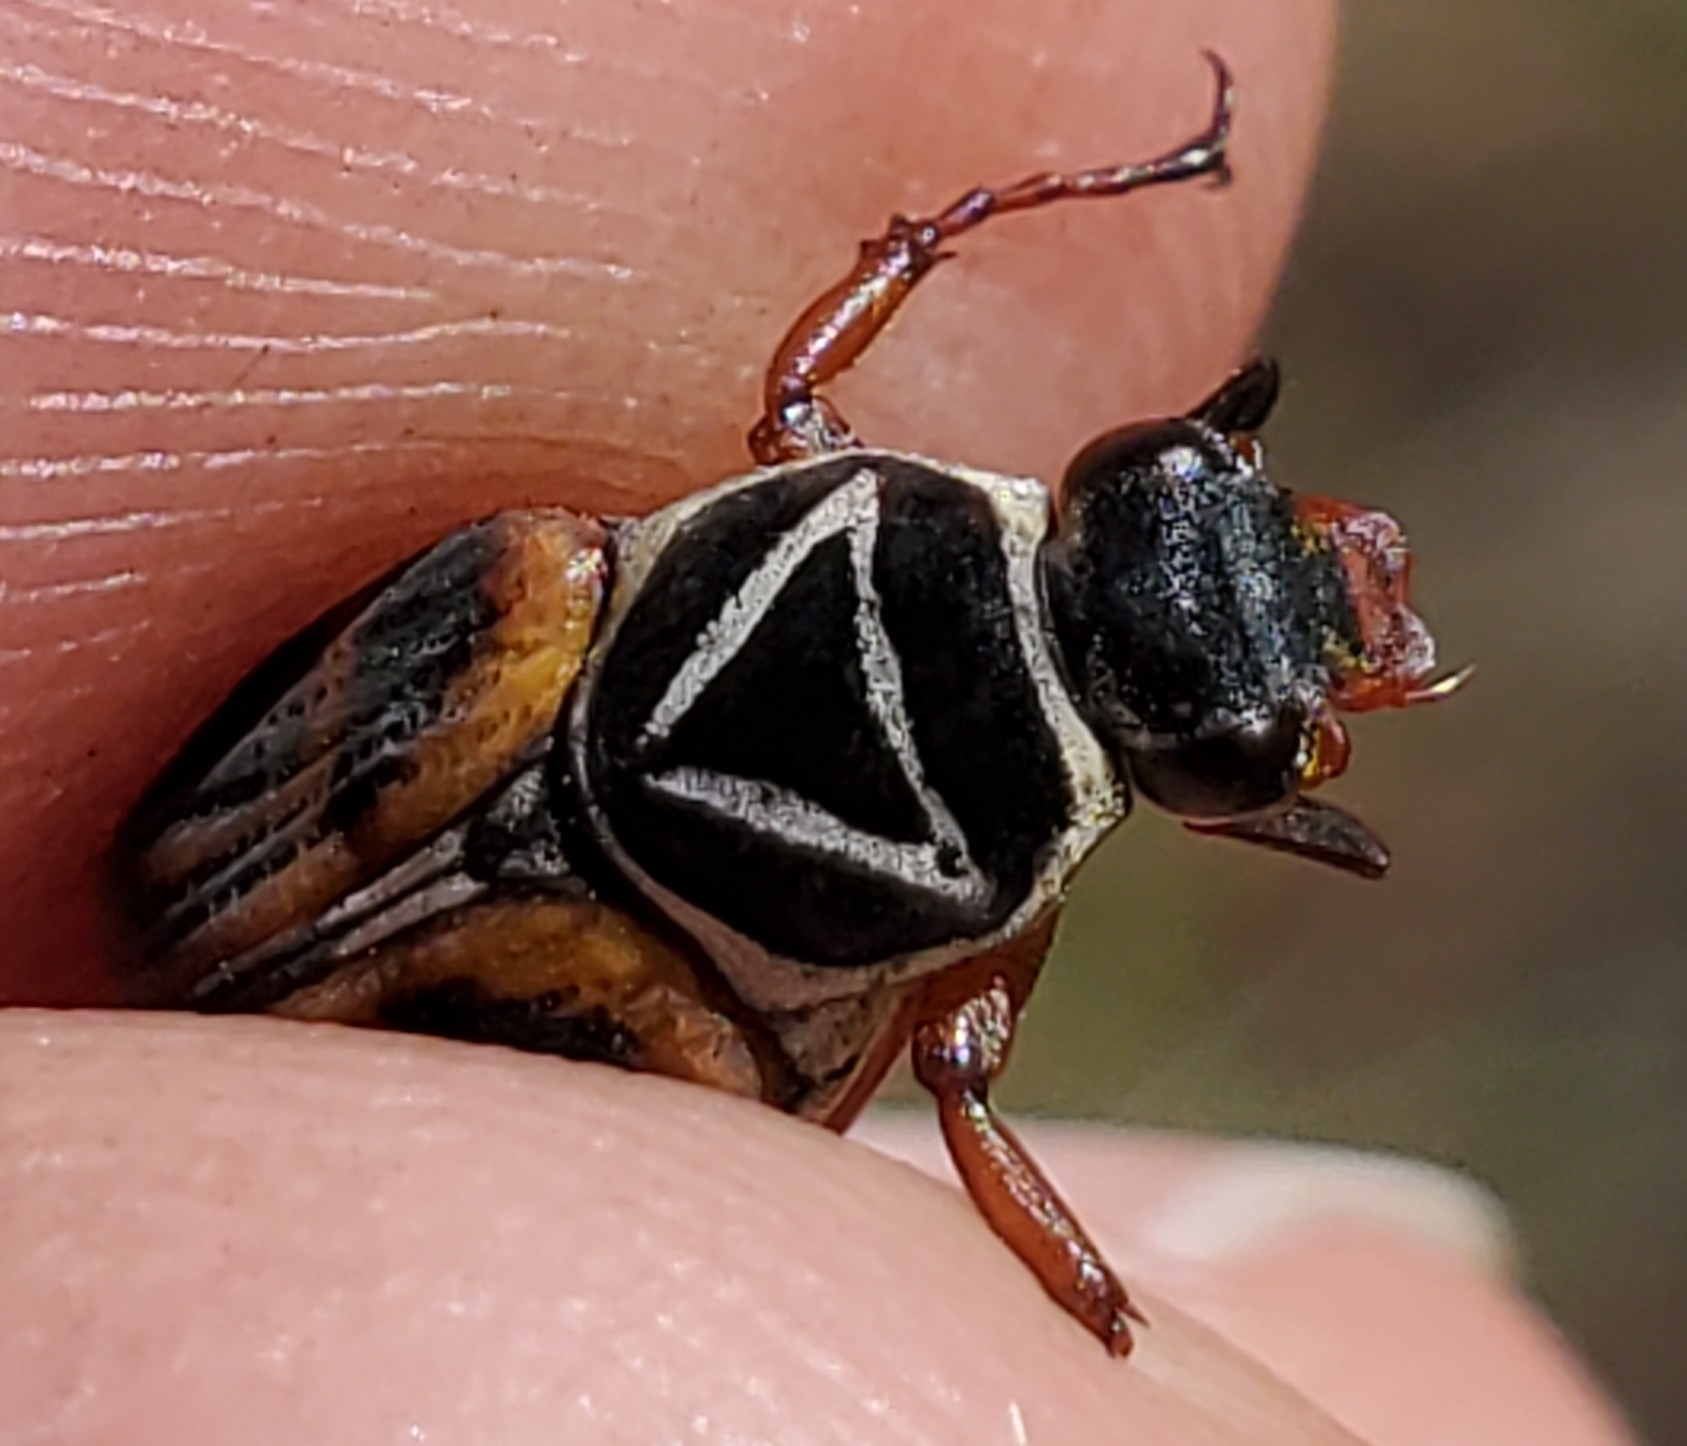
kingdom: Animalia
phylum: Arthropoda
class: Insecta
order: Coleoptera
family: Scarabaeidae
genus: Trigonopeltastes
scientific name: Trigonopeltastes delta
